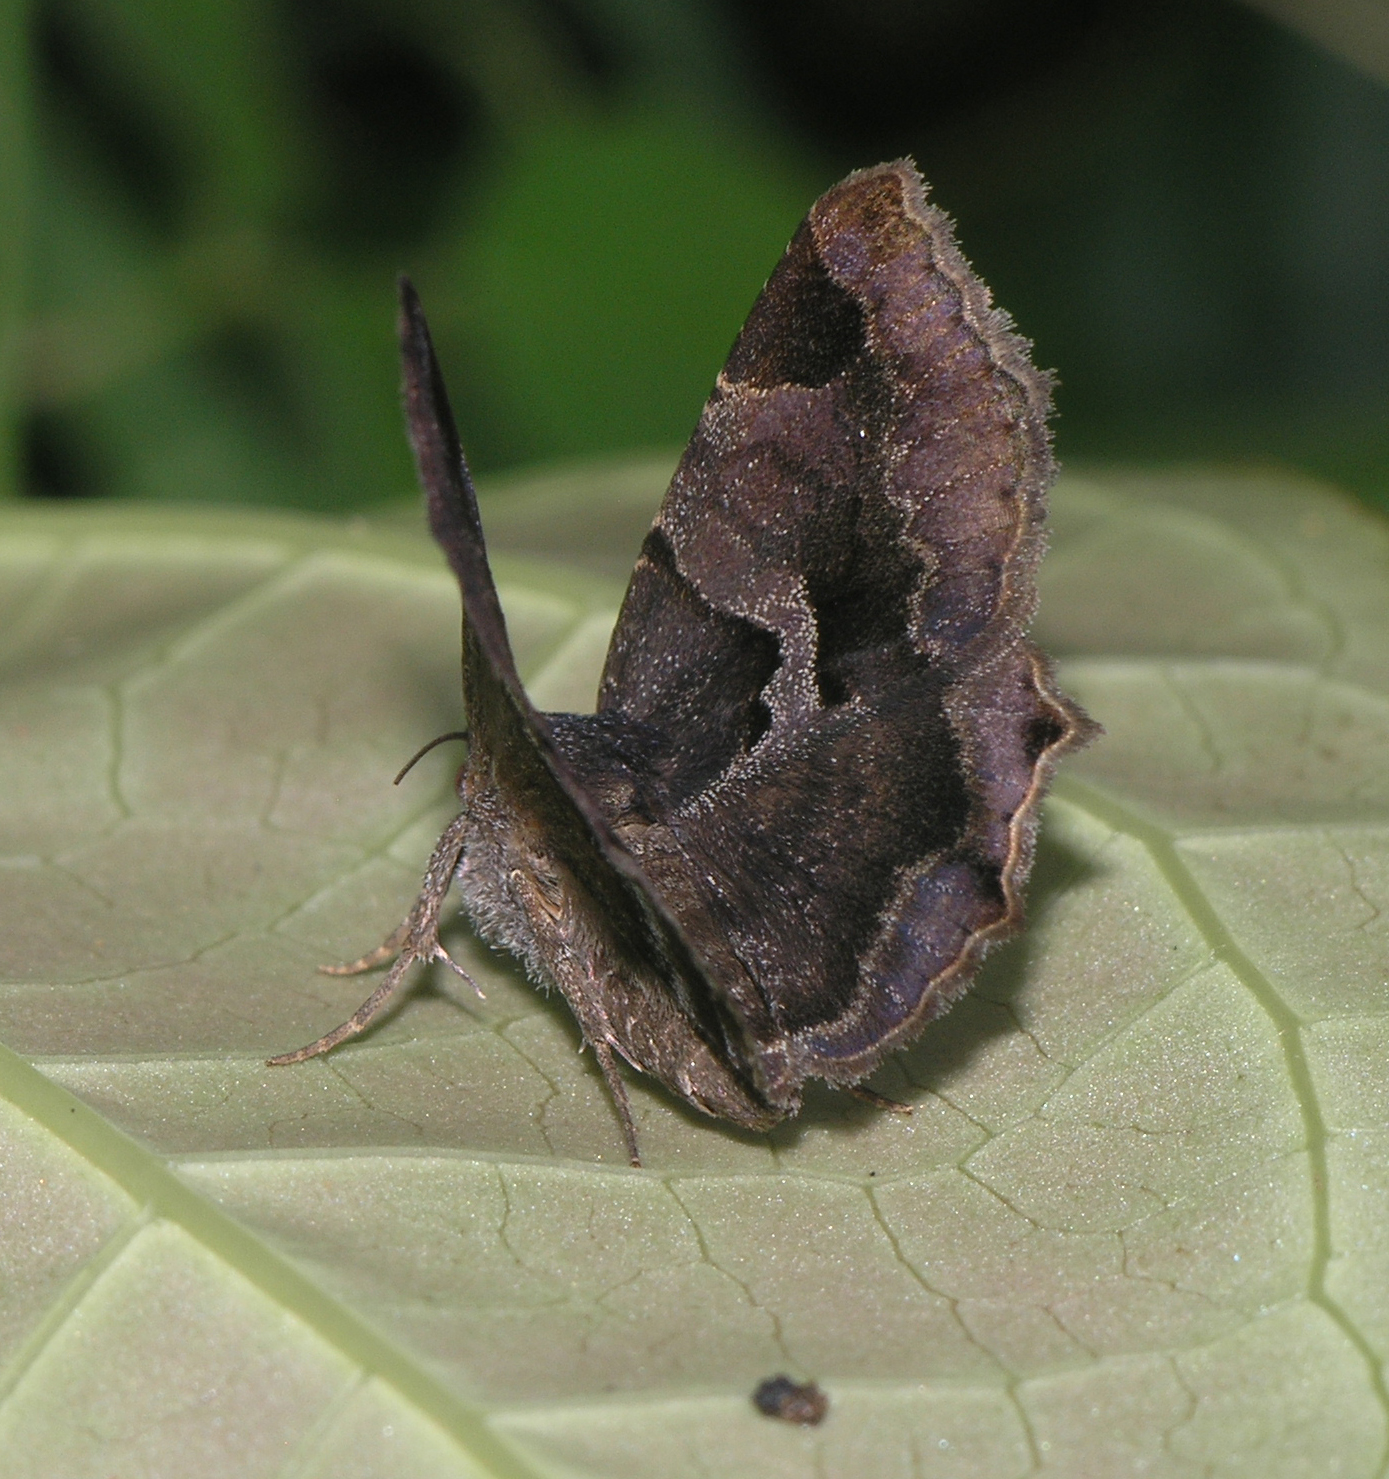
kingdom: Animalia
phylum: Arthropoda
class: Insecta
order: Lepidoptera
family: Erebidae
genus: Zethesides
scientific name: Zethesides hesperioides
